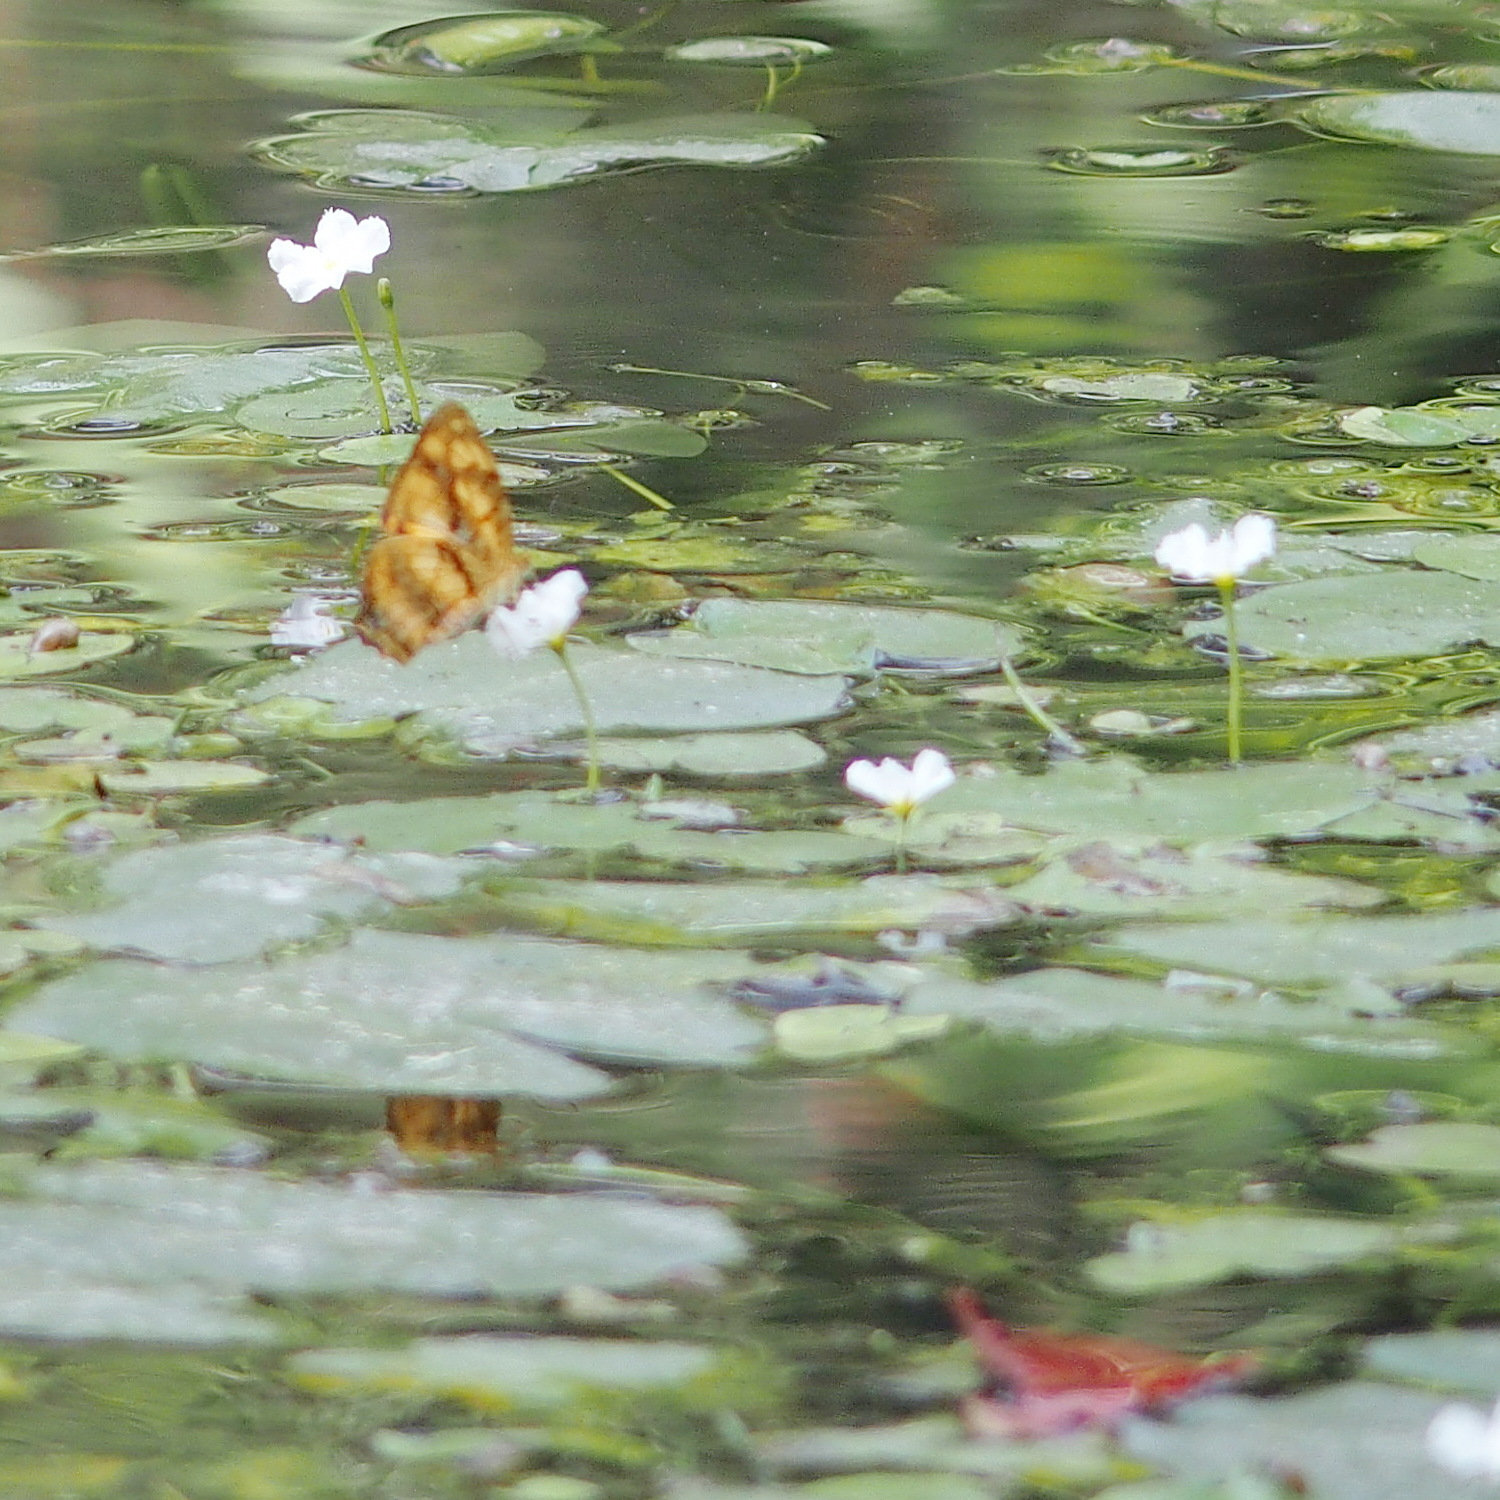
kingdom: Animalia
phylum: Arthropoda
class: Insecta
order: Lepidoptera
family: Nymphalidae
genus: Symbrenthia
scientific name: Symbrenthia hypselis
